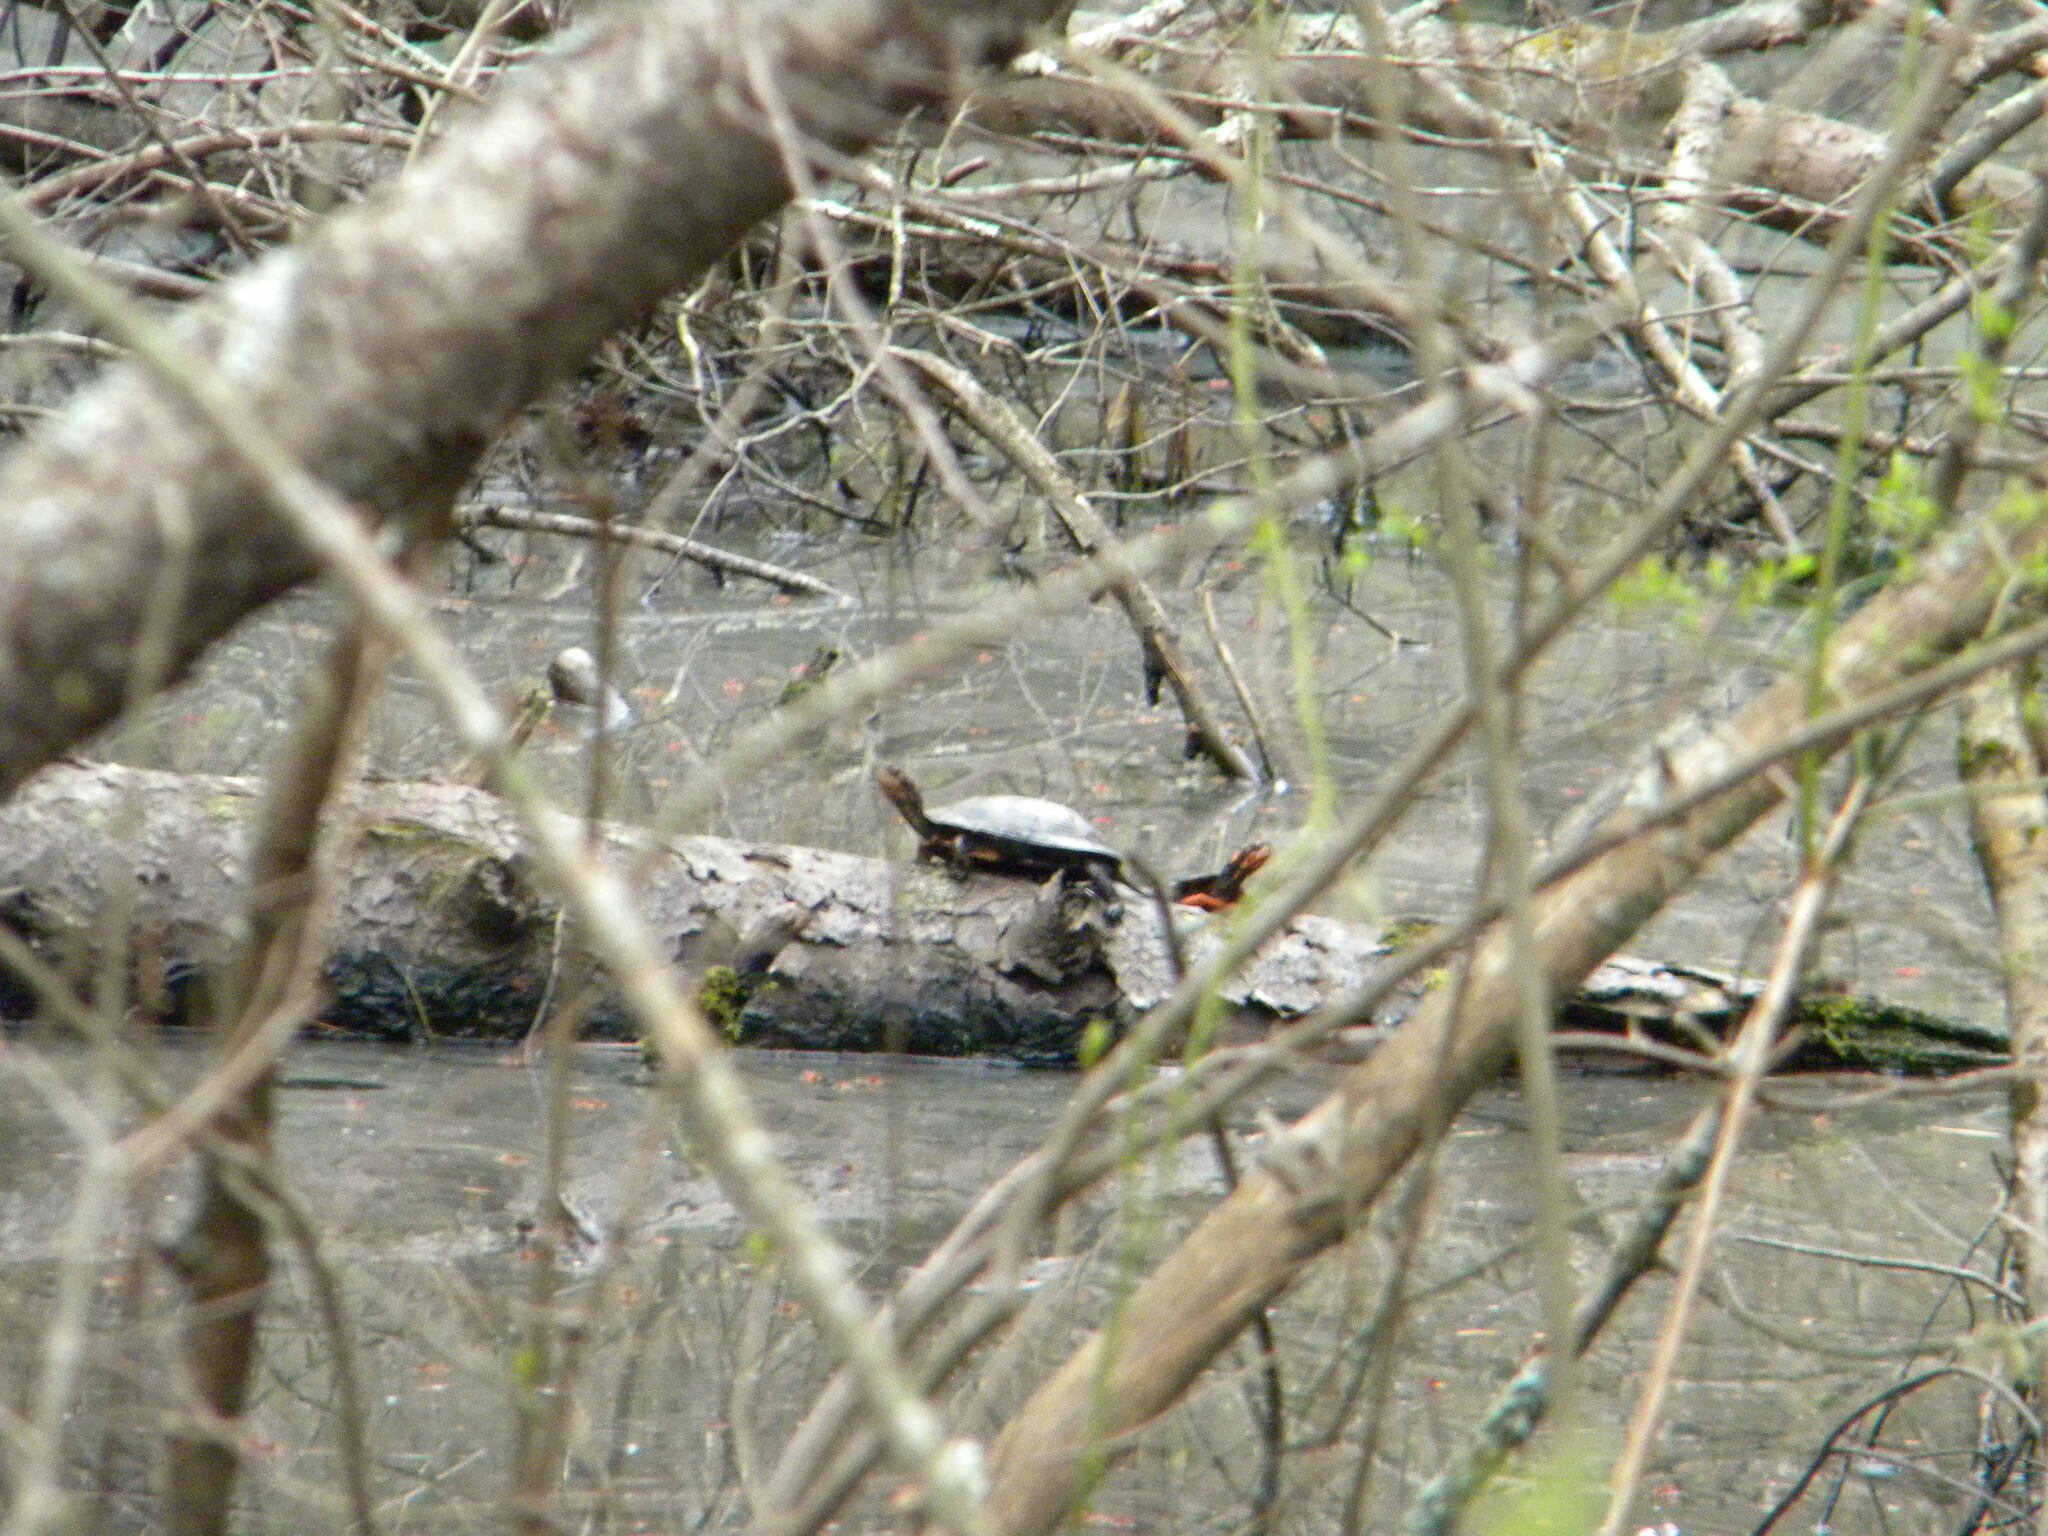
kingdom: Animalia
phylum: Chordata
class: Testudines
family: Emydidae
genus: Clemmys
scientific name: Clemmys guttata
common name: Spotted turtle
